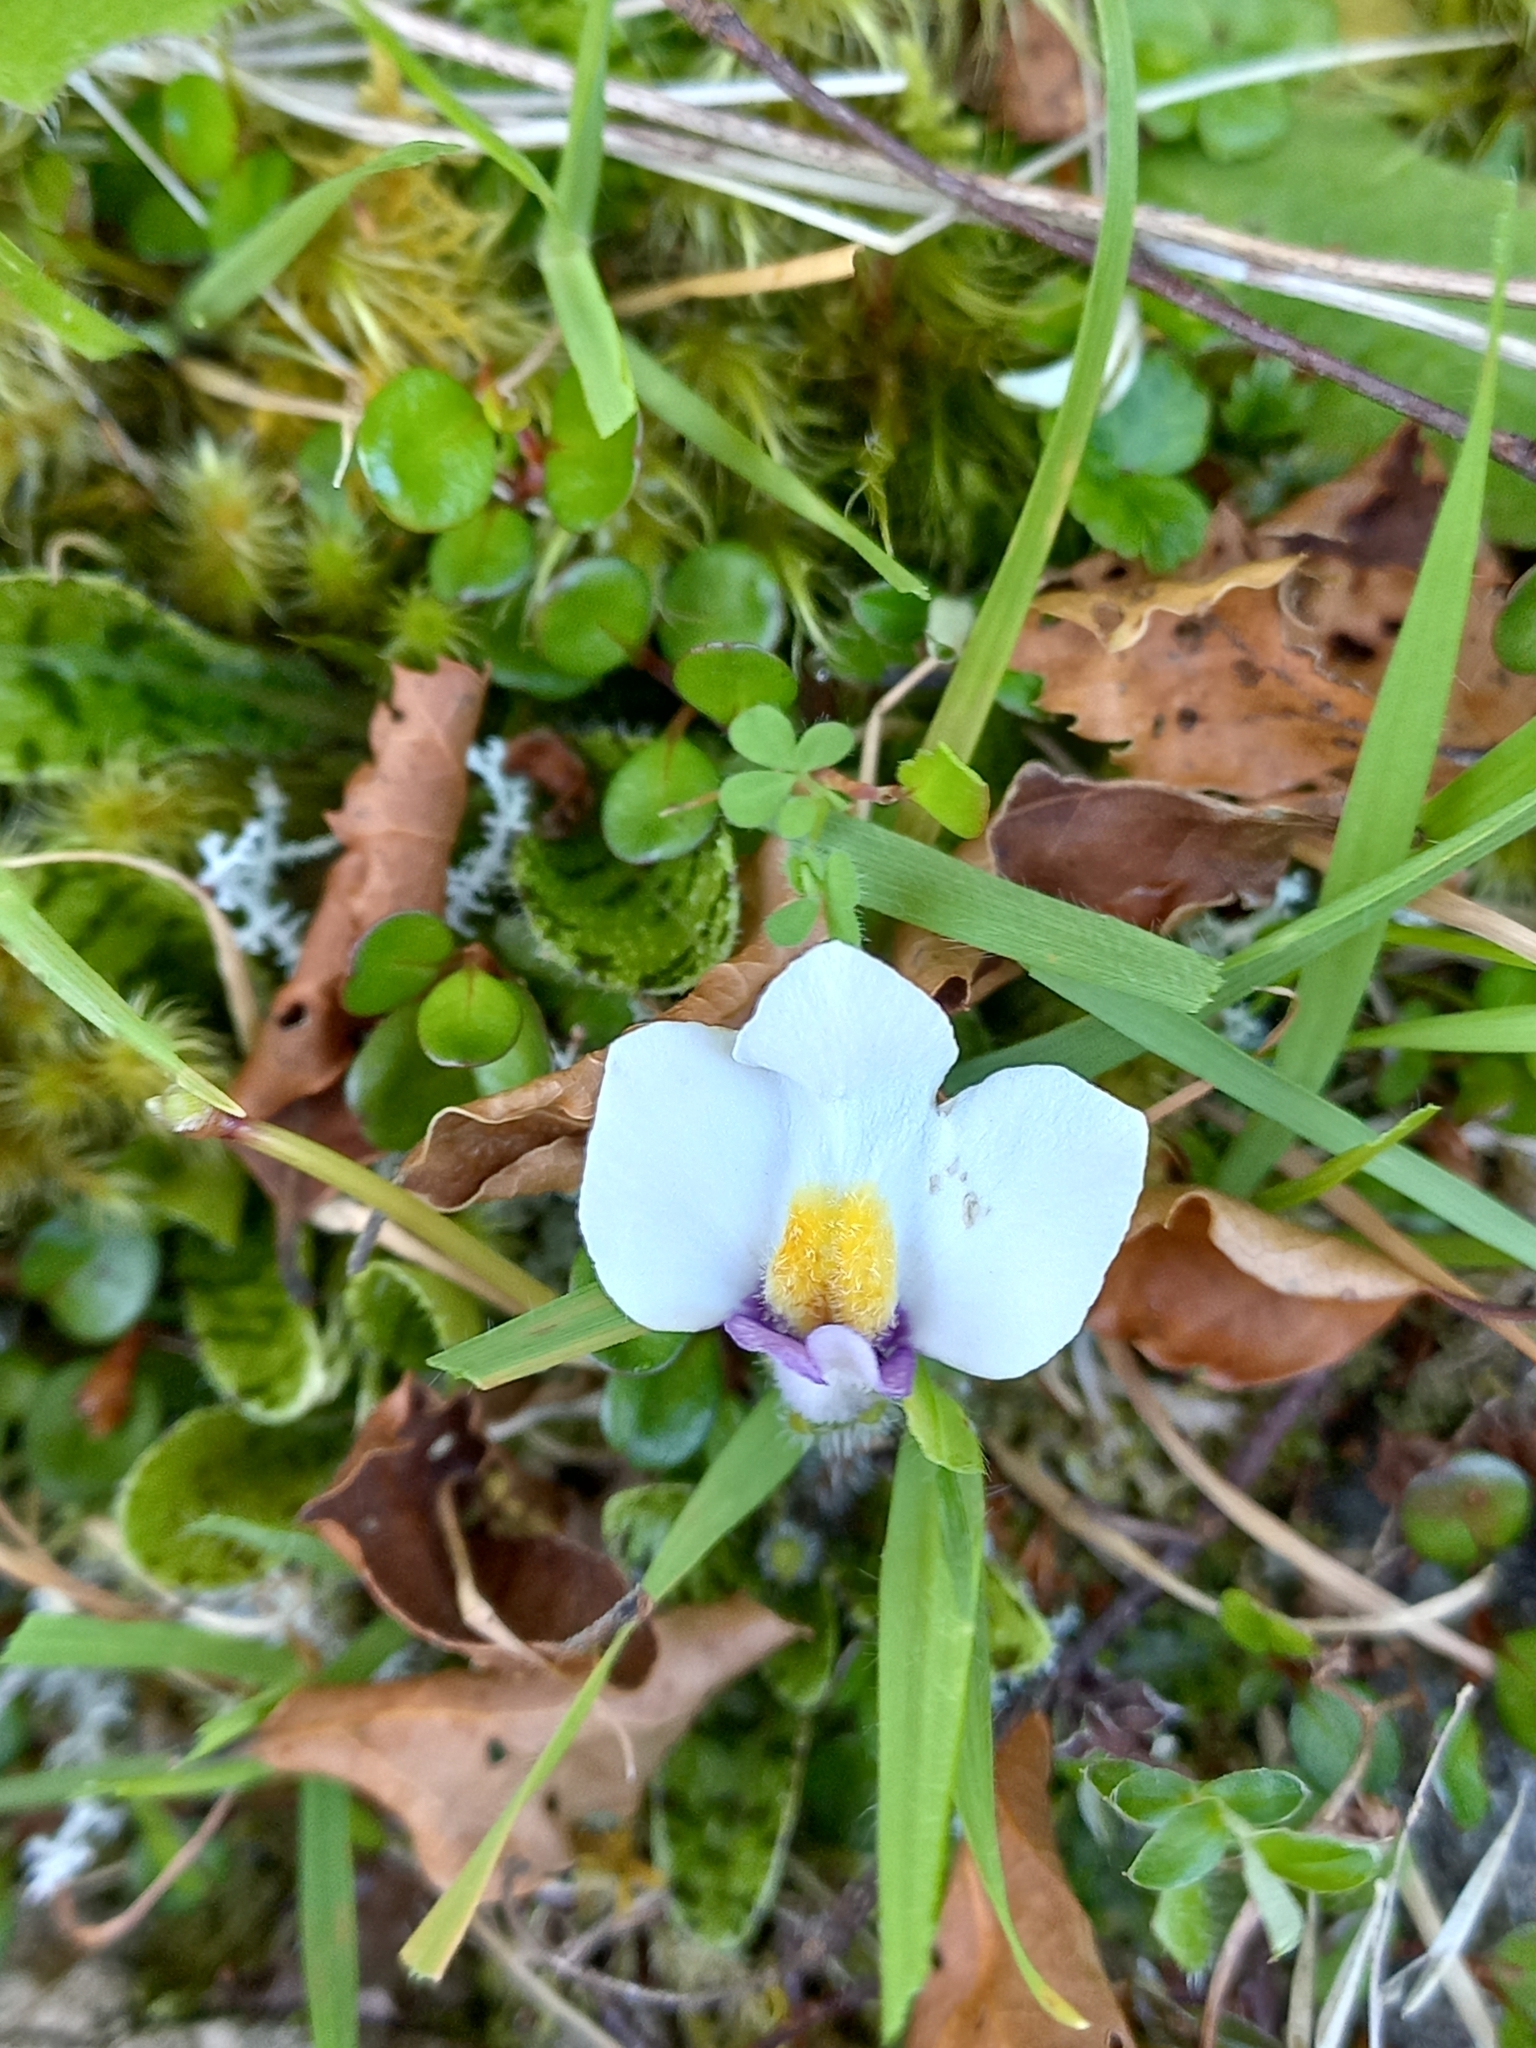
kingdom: Plantae
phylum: Tracheophyta
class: Magnoliopsida
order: Lamiales
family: Mazaceae
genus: Mazus
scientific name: Mazus radicans
